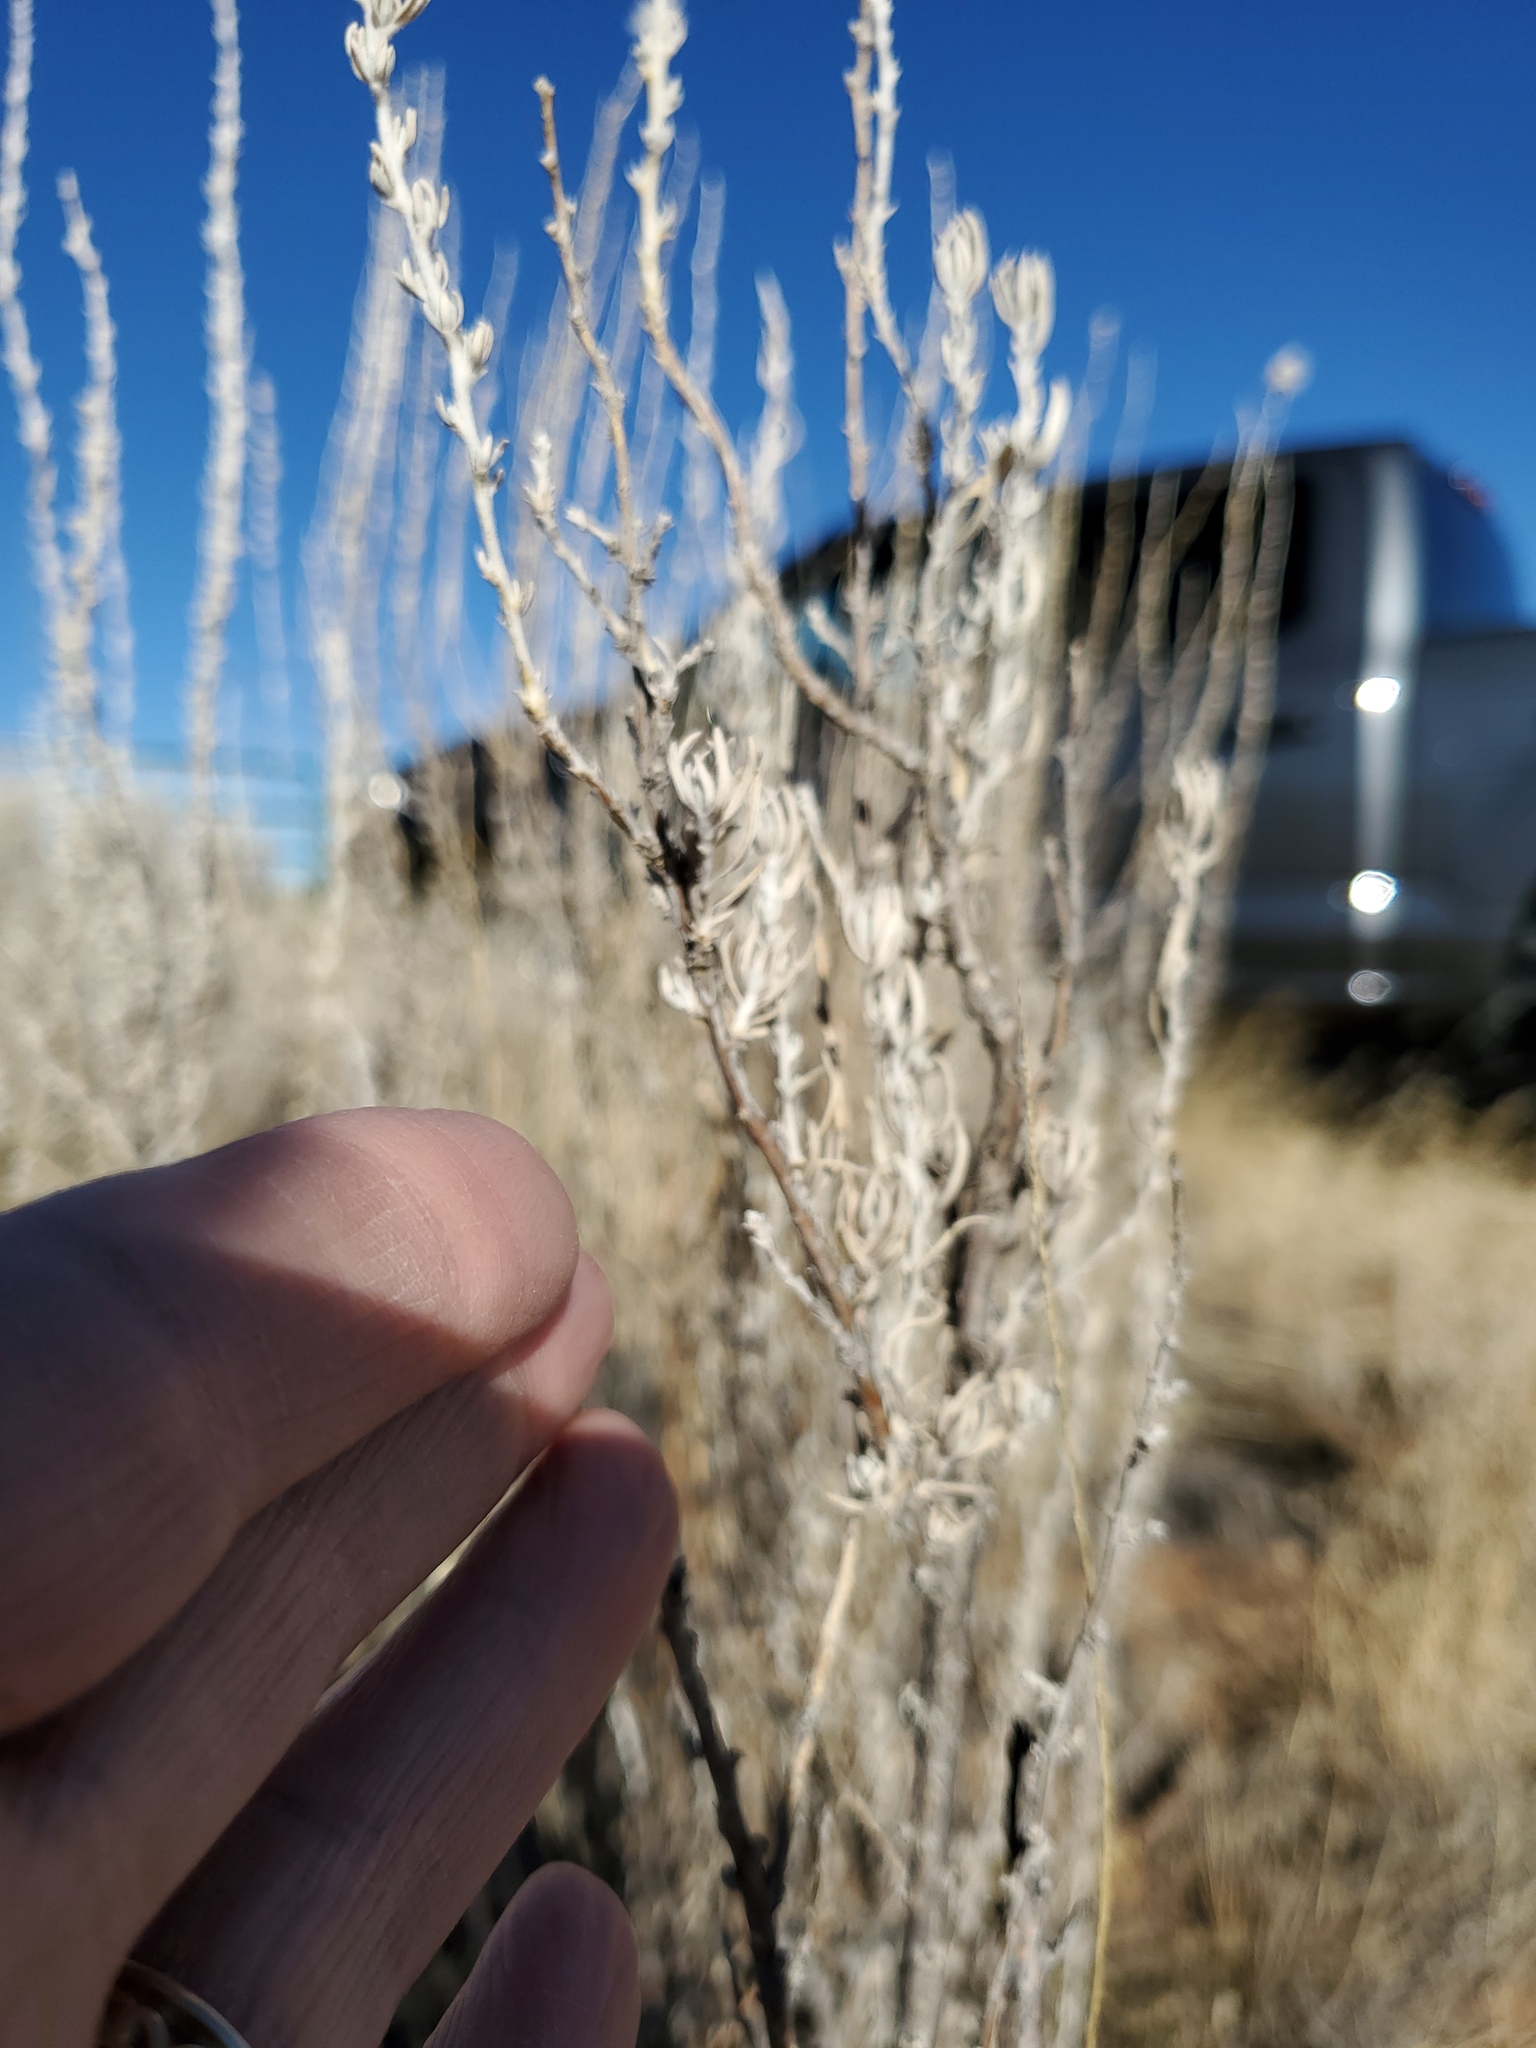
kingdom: Plantae
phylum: Tracheophyta
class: Magnoliopsida
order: Caryophyllales
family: Amaranthaceae
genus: Krascheninnikovia
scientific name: Krascheninnikovia lanata
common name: Winterfat
